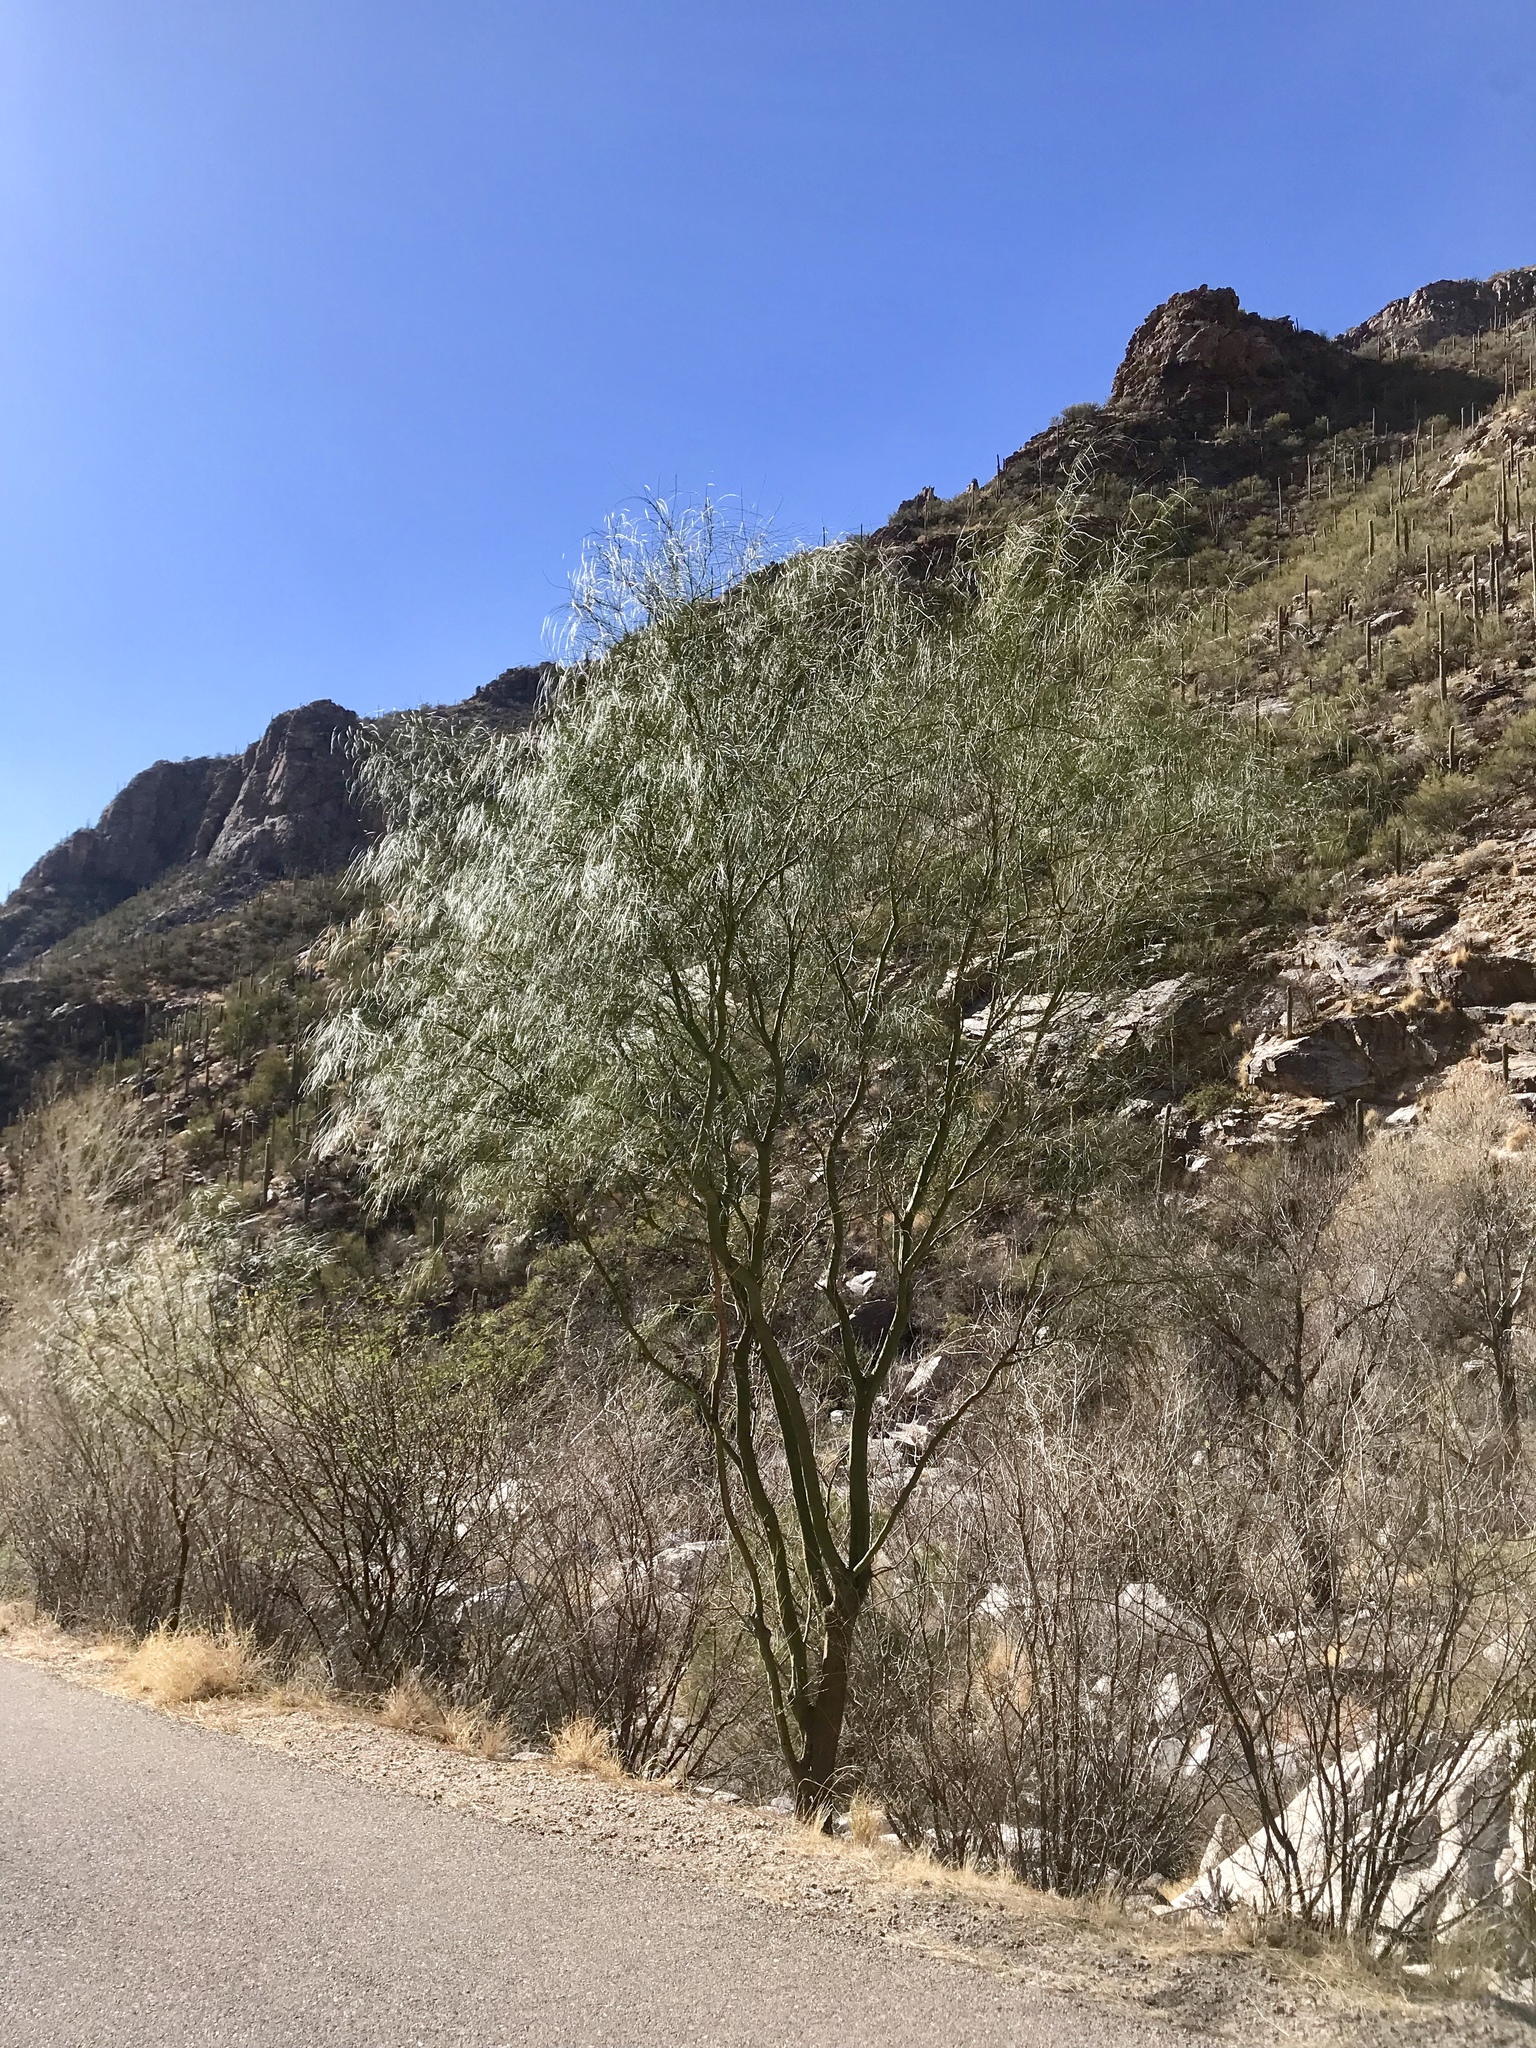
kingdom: Plantae
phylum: Tracheophyta
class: Magnoliopsida
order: Fabales
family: Fabaceae
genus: Parkinsonia
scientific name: Parkinsonia aculeata
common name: Jerusalem thorn
